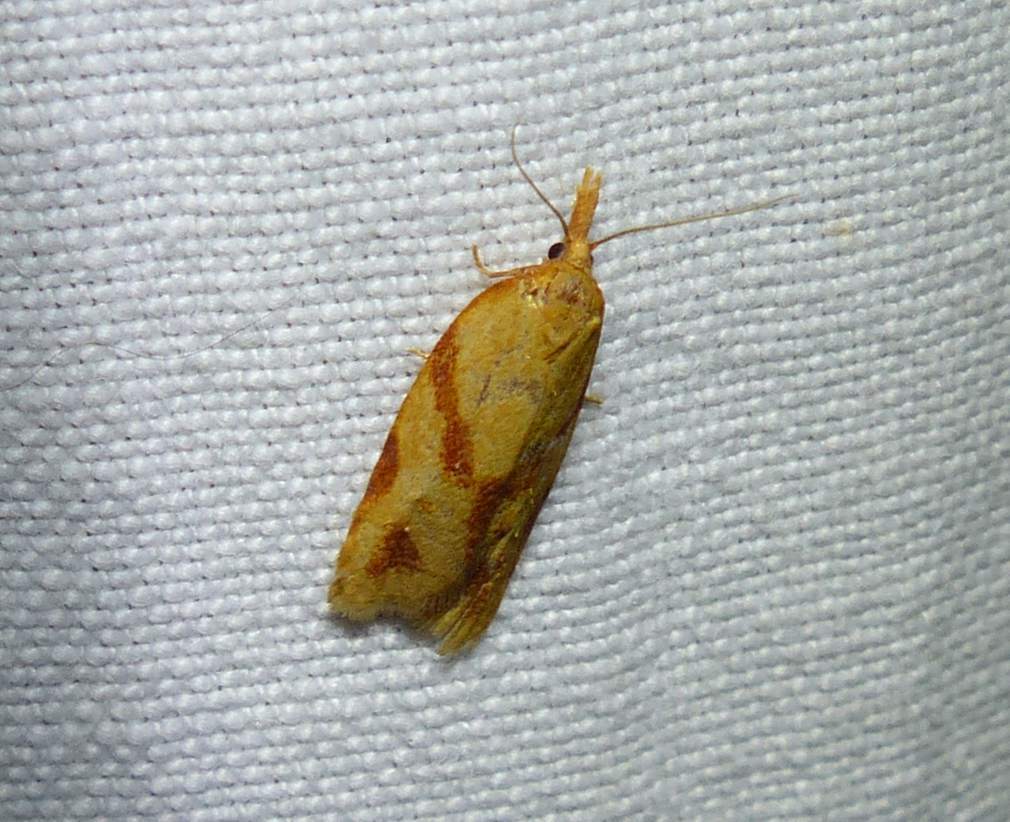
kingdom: Animalia
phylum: Arthropoda
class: Insecta
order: Lepidoptera
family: Tortricidae
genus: Sparganothis
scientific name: Sparganothis unifasciana
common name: One-lined sparganothis moth
